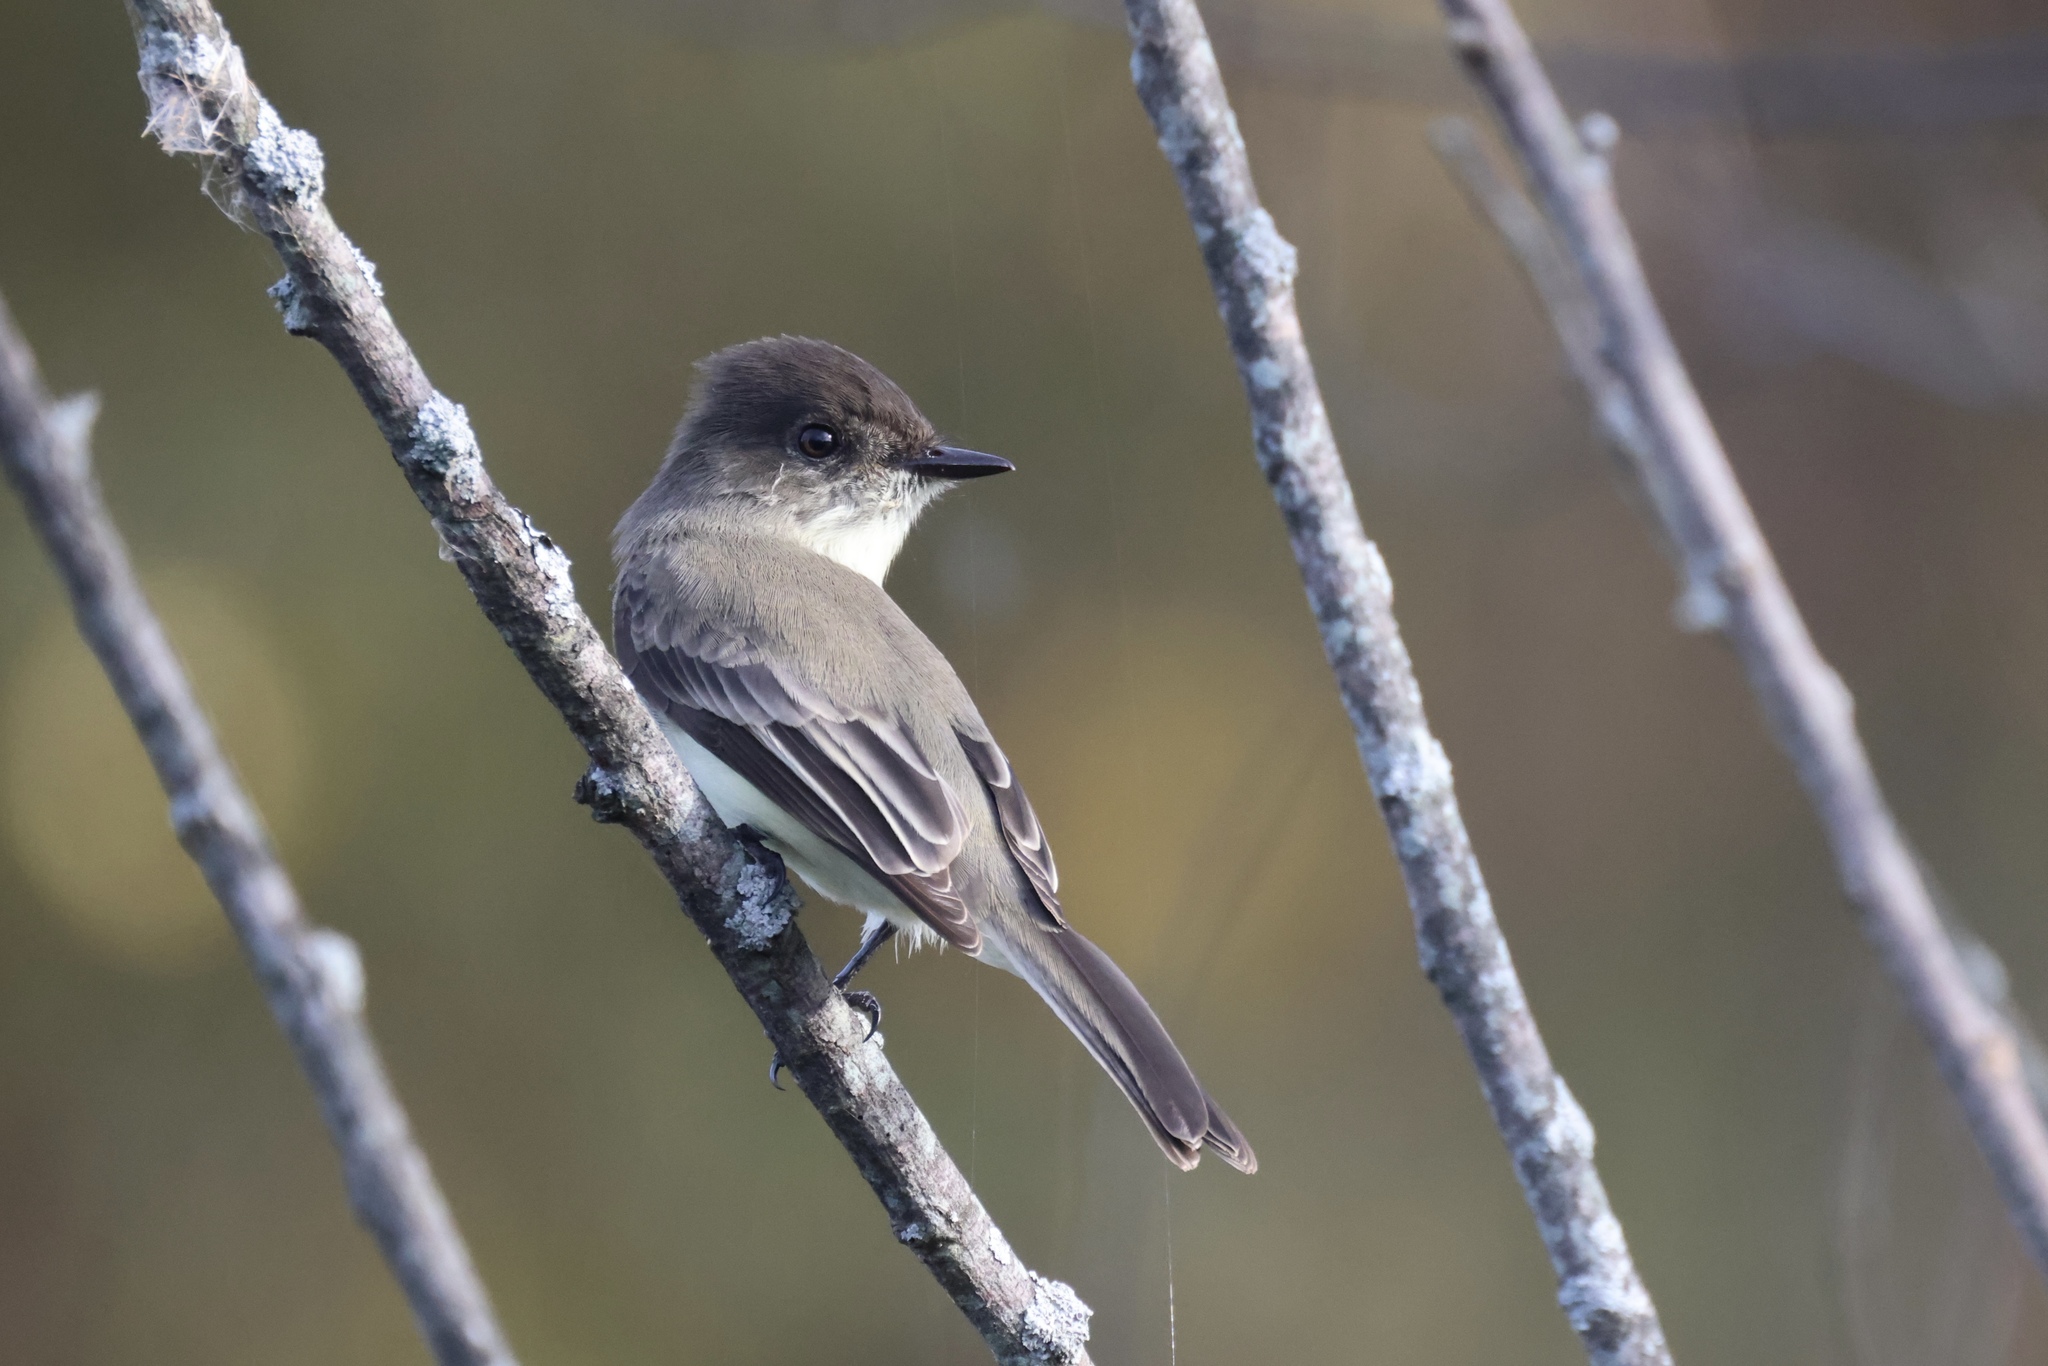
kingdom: Animalia
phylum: Chordata
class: Aves
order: Passeriformes
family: Tyrannidae
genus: Sayornis
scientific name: Sayornis phoebe
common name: Eastern phoebe
